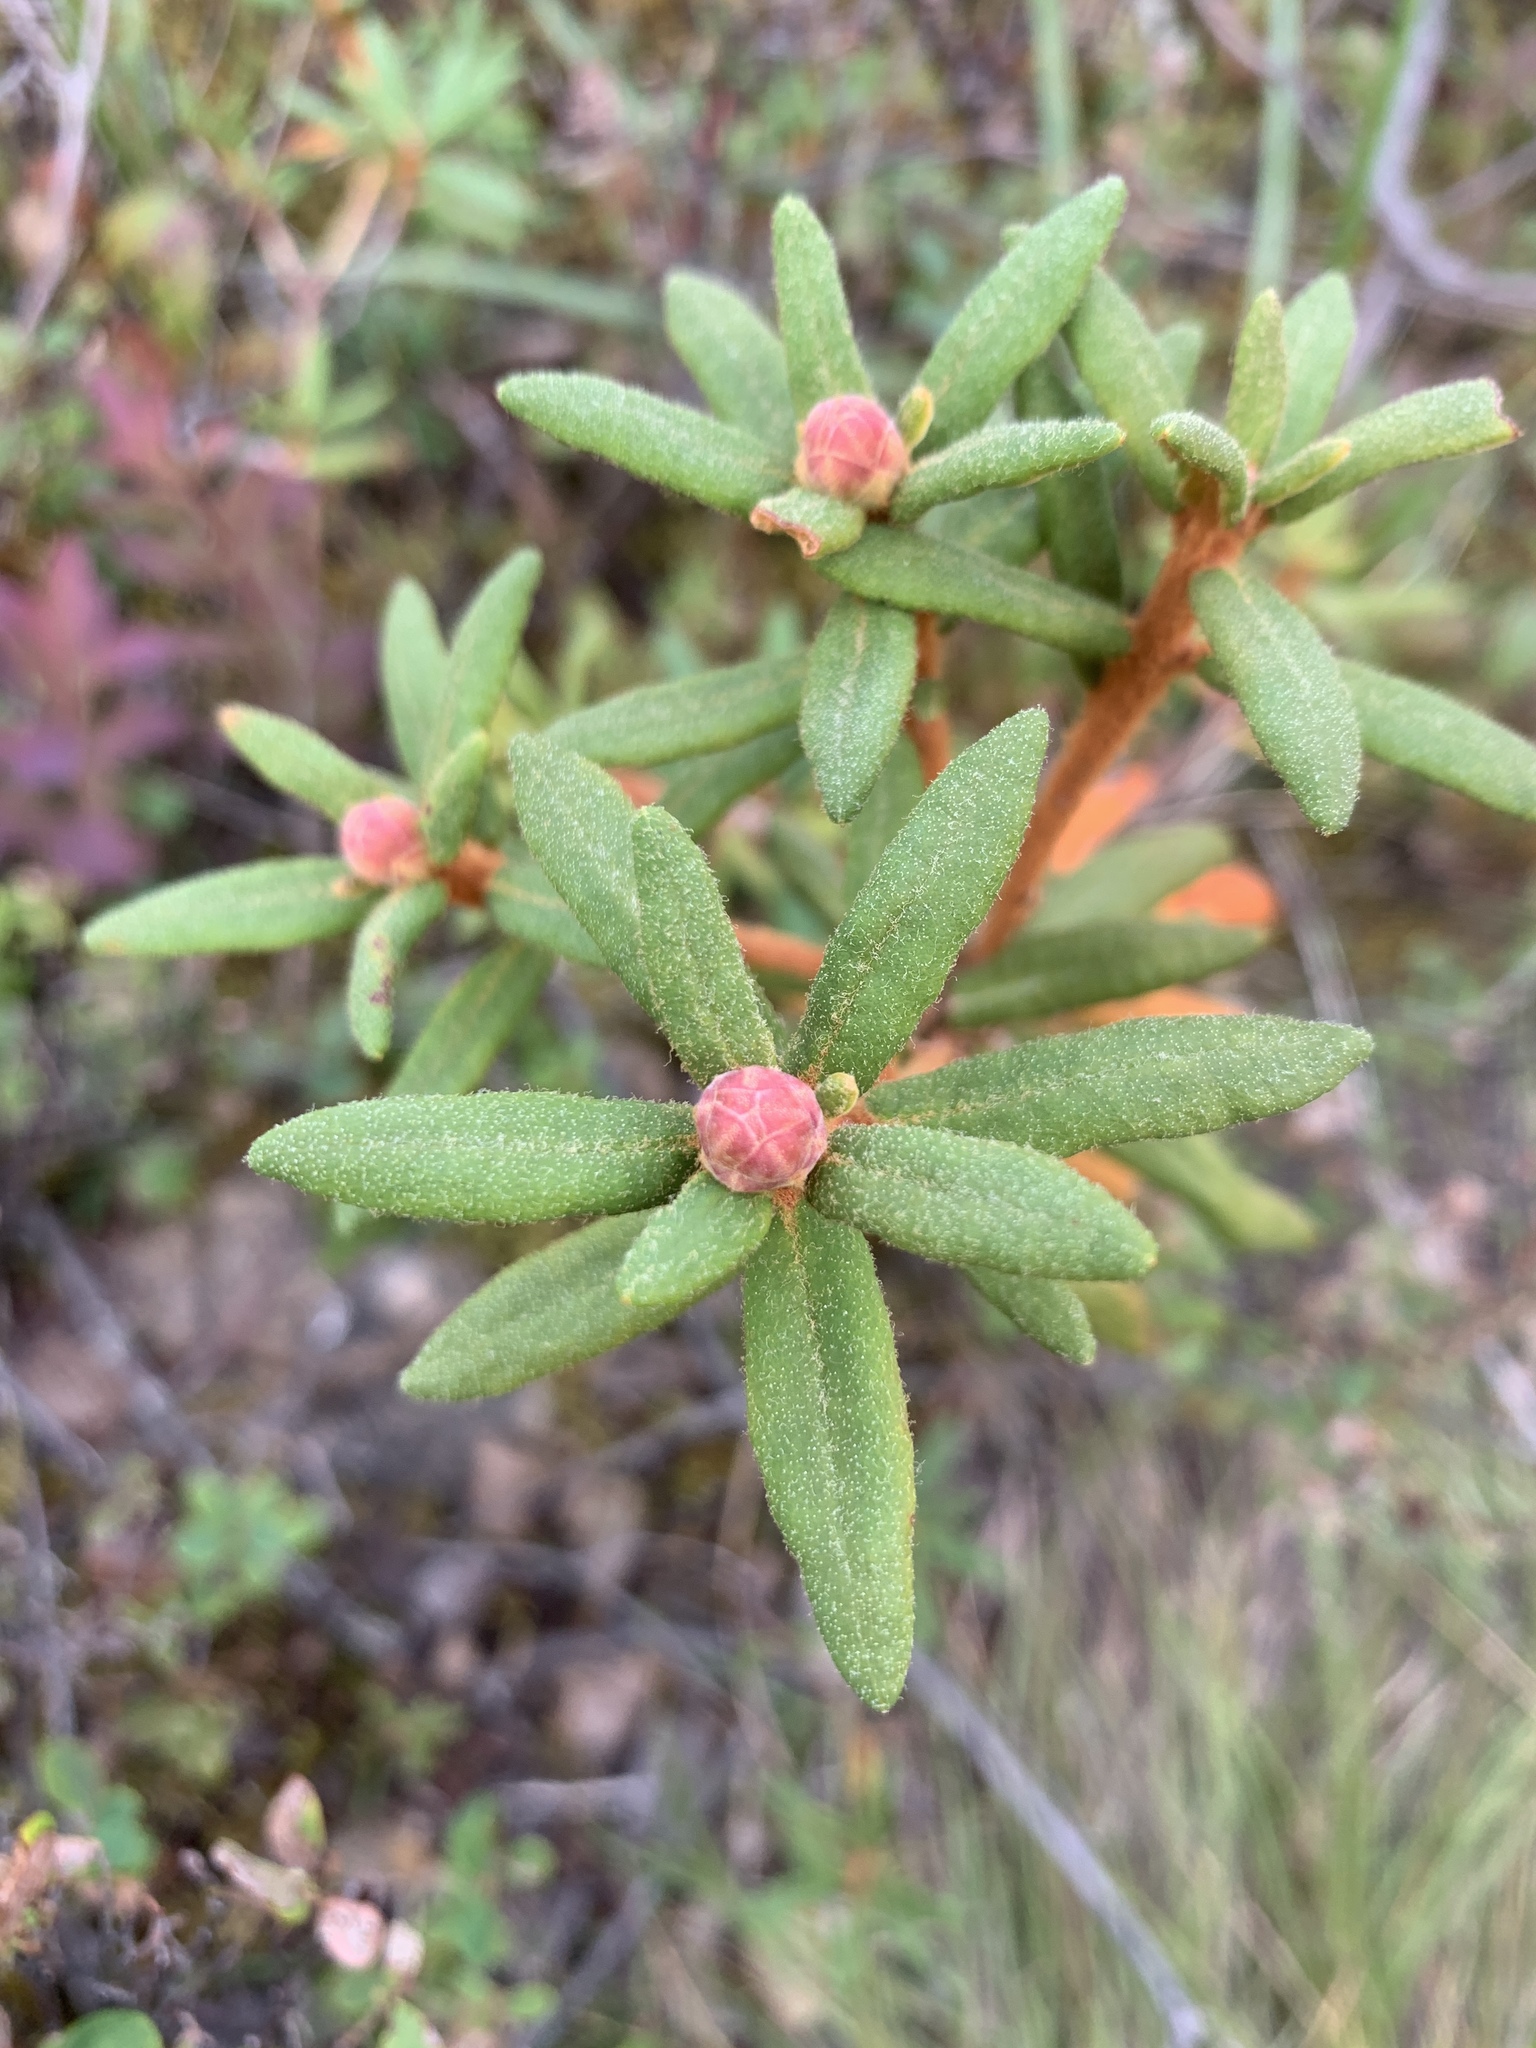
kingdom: Plantae
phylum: Tracheophyta
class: Magnoliopsida
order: Ericales
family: Ericaceae
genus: Rhododendron
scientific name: Rhododendron groenlandicum
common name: Bog labrador tea
